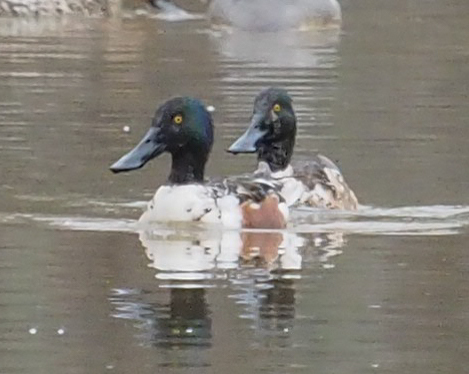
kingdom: Animalia
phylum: Chordata
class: Aves
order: Anseriformes
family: Anatidae
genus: Spatula
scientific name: Spatula clypeata
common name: Northern shoveler
